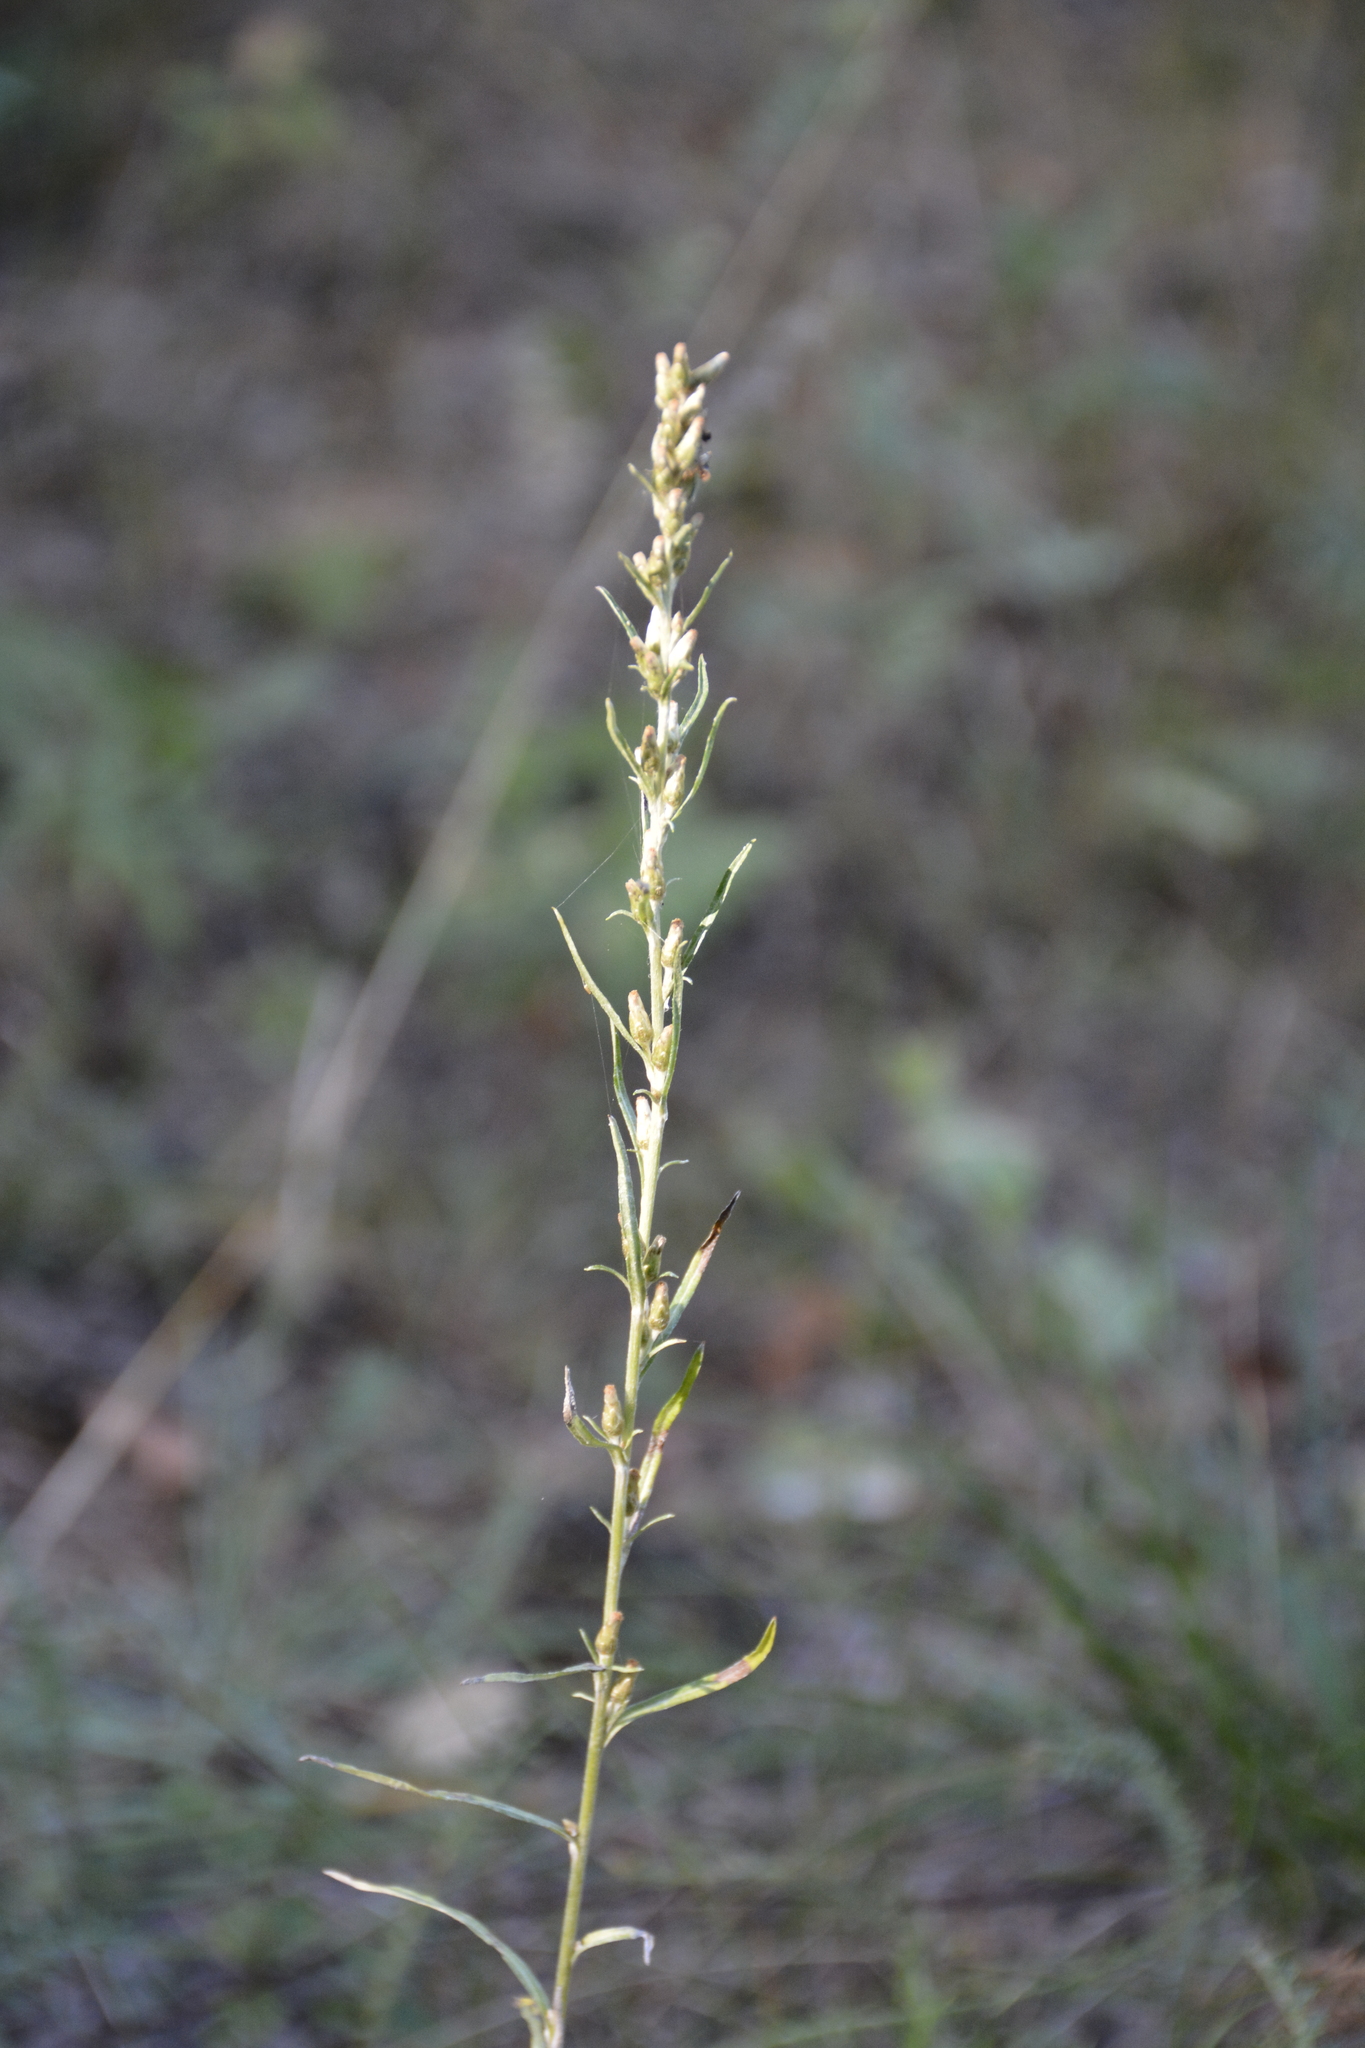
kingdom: Plantae
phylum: Tracheophyta
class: Magnoliopsida
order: Asterales
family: Asteraceae
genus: Omalotheca
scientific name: Omalotheca sylvatica
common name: Heath cudweed
